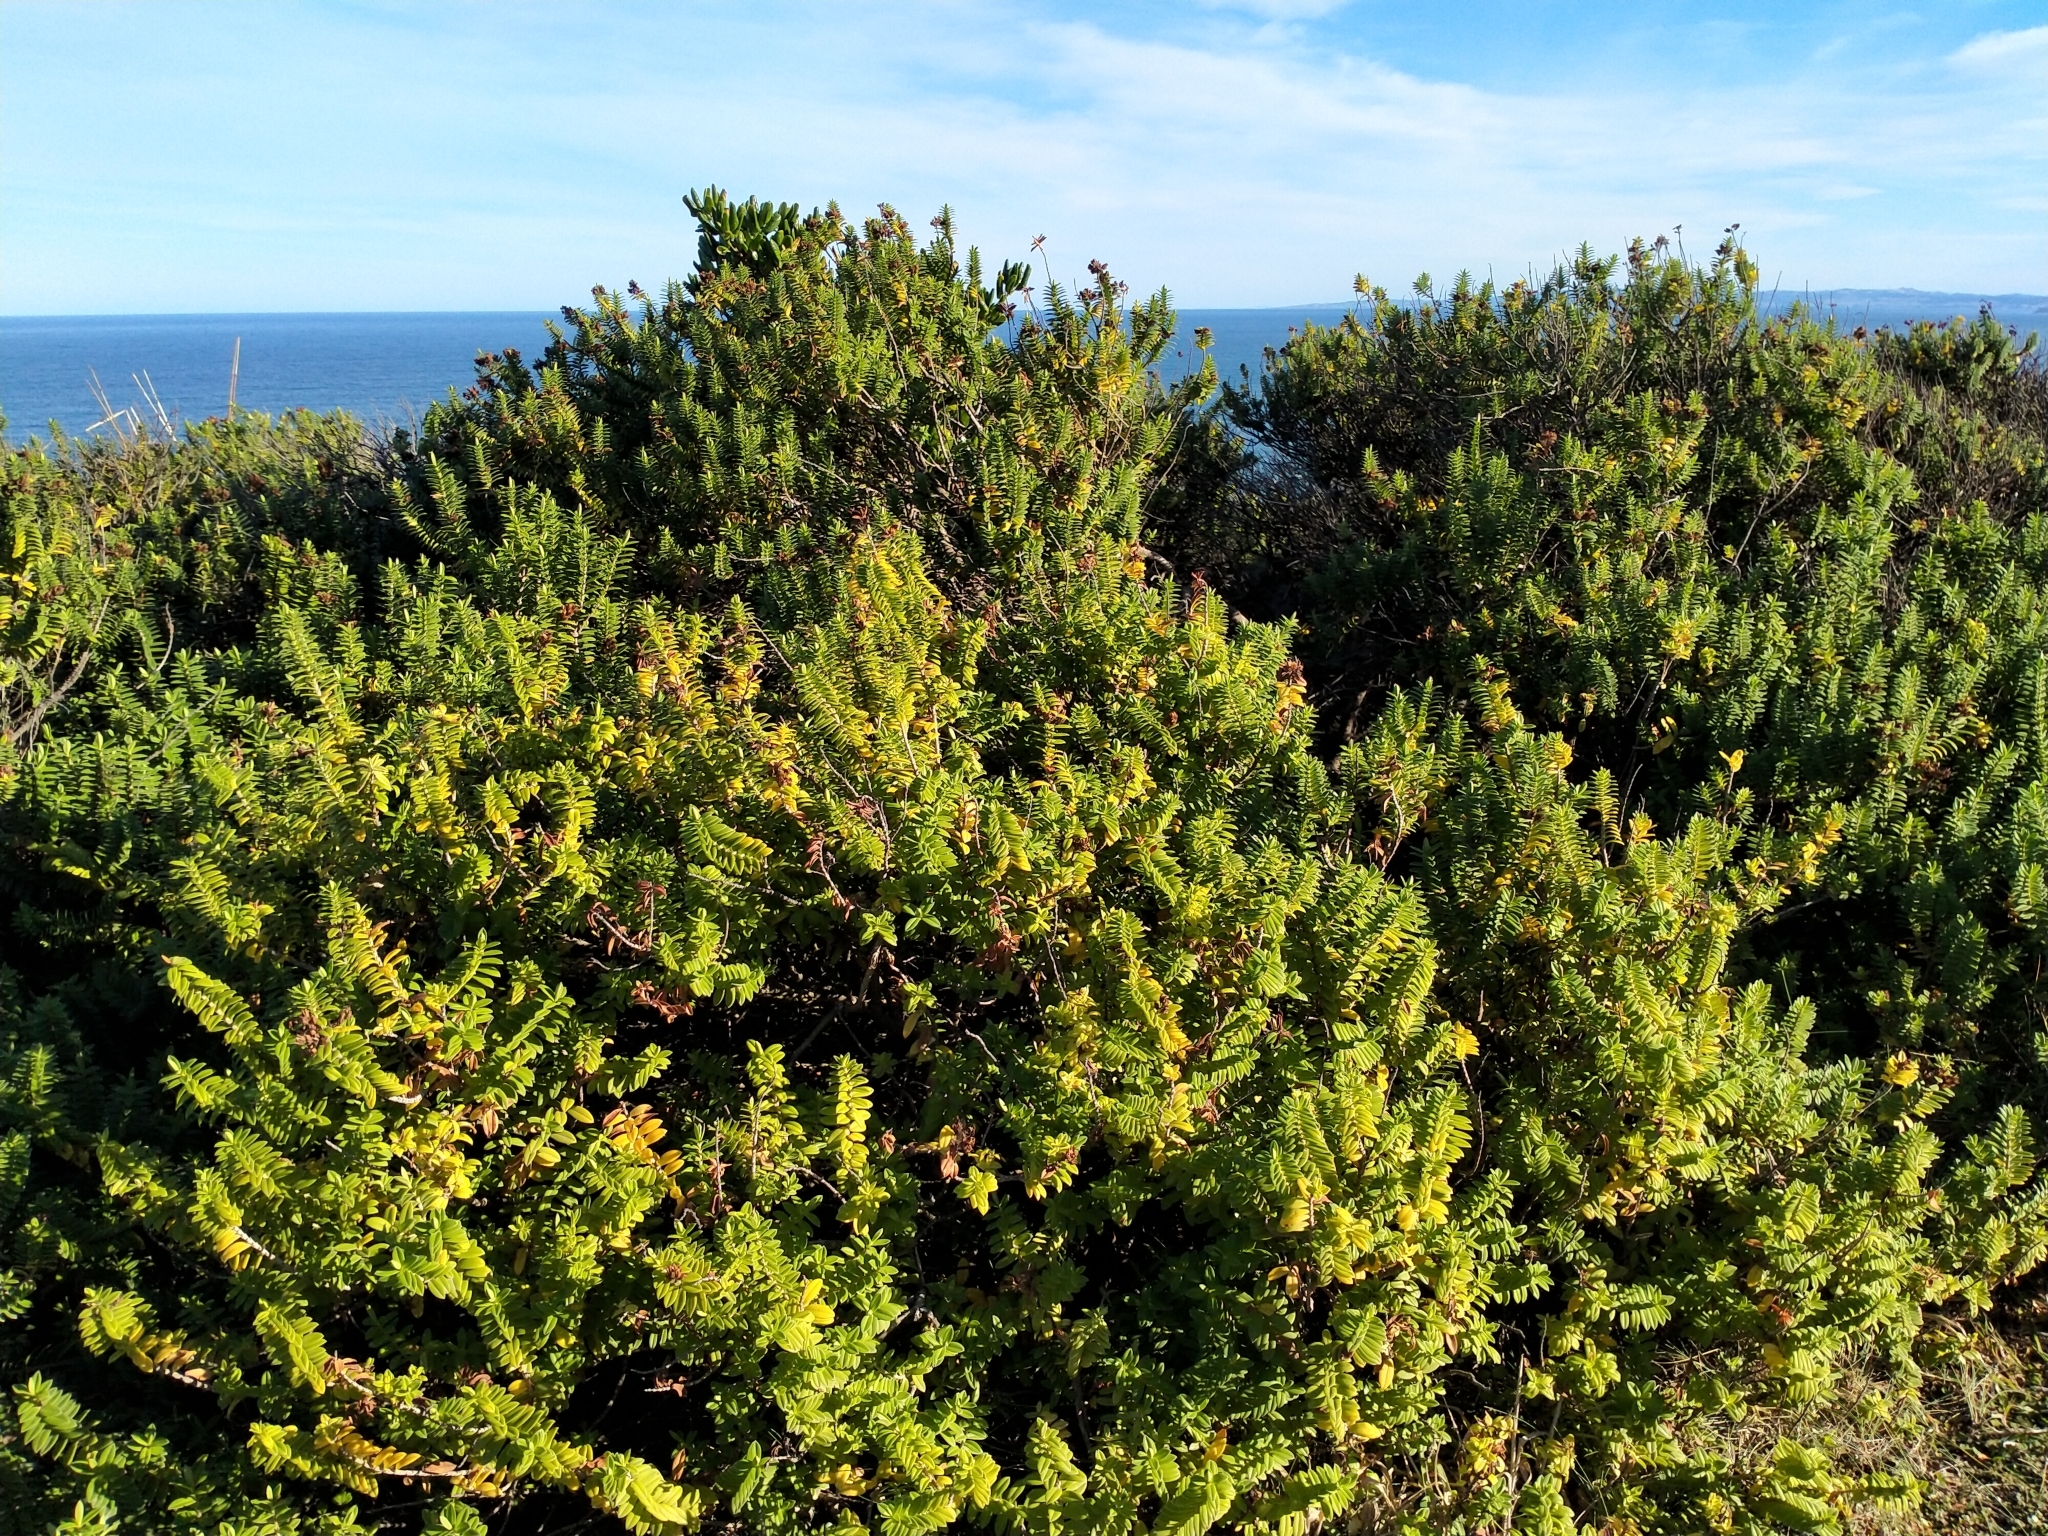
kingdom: Plantae
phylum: Tracheophyta
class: Magnoliopsida
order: Lamiales
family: Plantaginaceae
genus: Veronica
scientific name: Veronica elliptica
